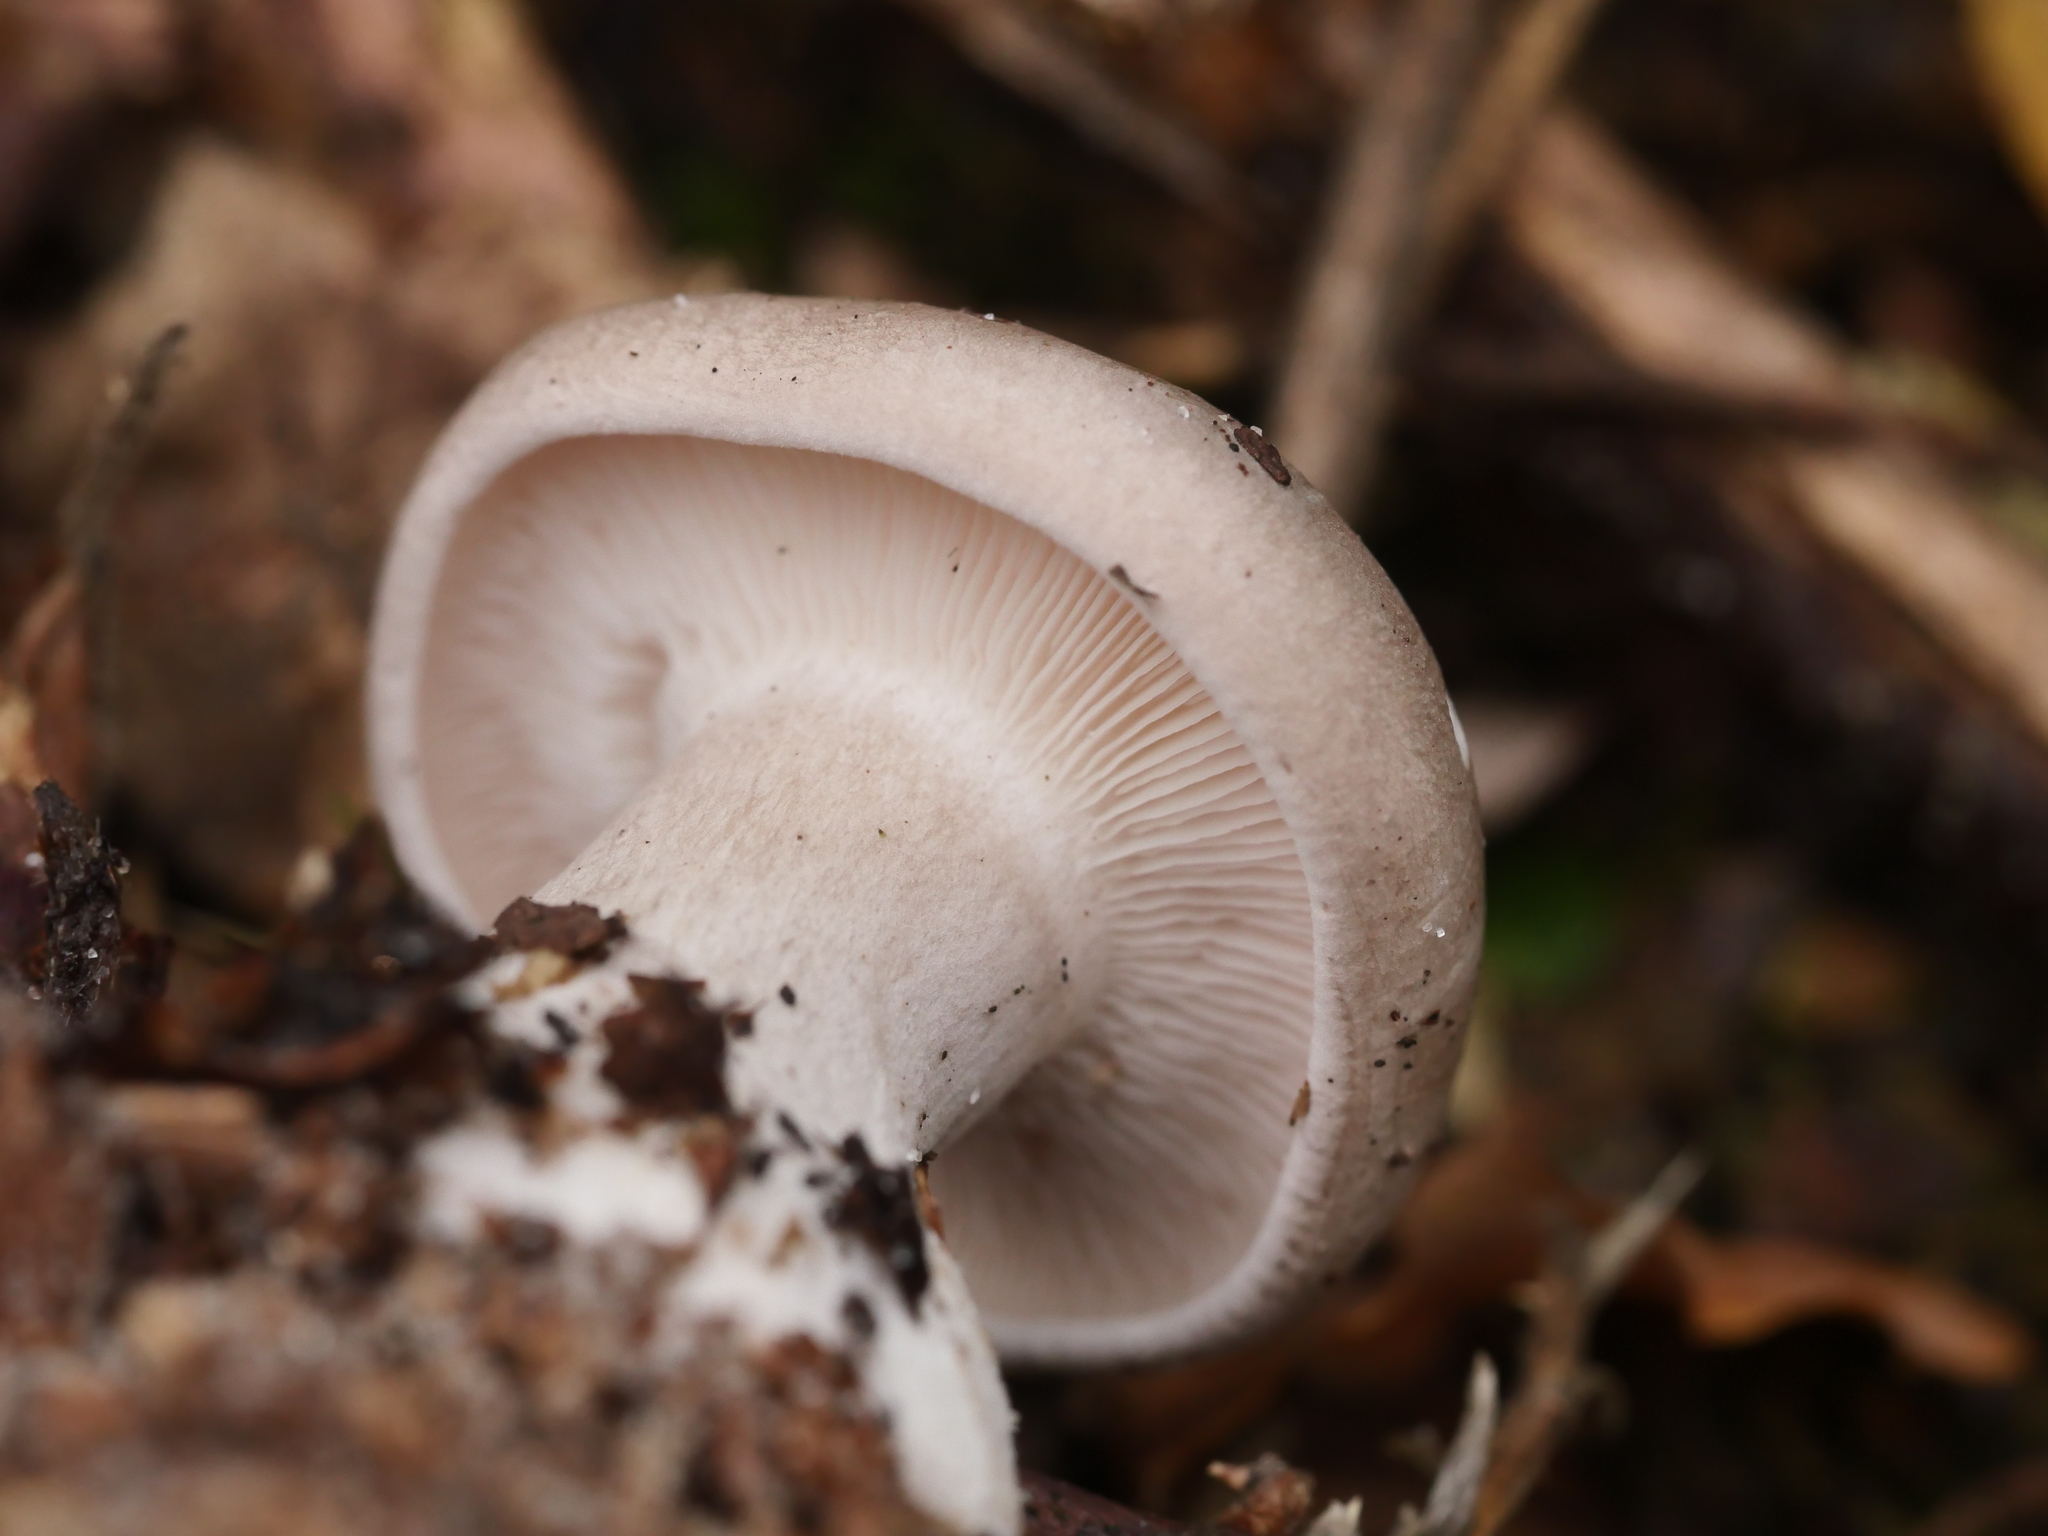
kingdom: Fungi
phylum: Basidiomycota
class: Agaricomycetes
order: Agaricales
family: Tricholomataceae
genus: Clitocybe
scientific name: Clitocybe nebularis
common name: Clouded agaric
